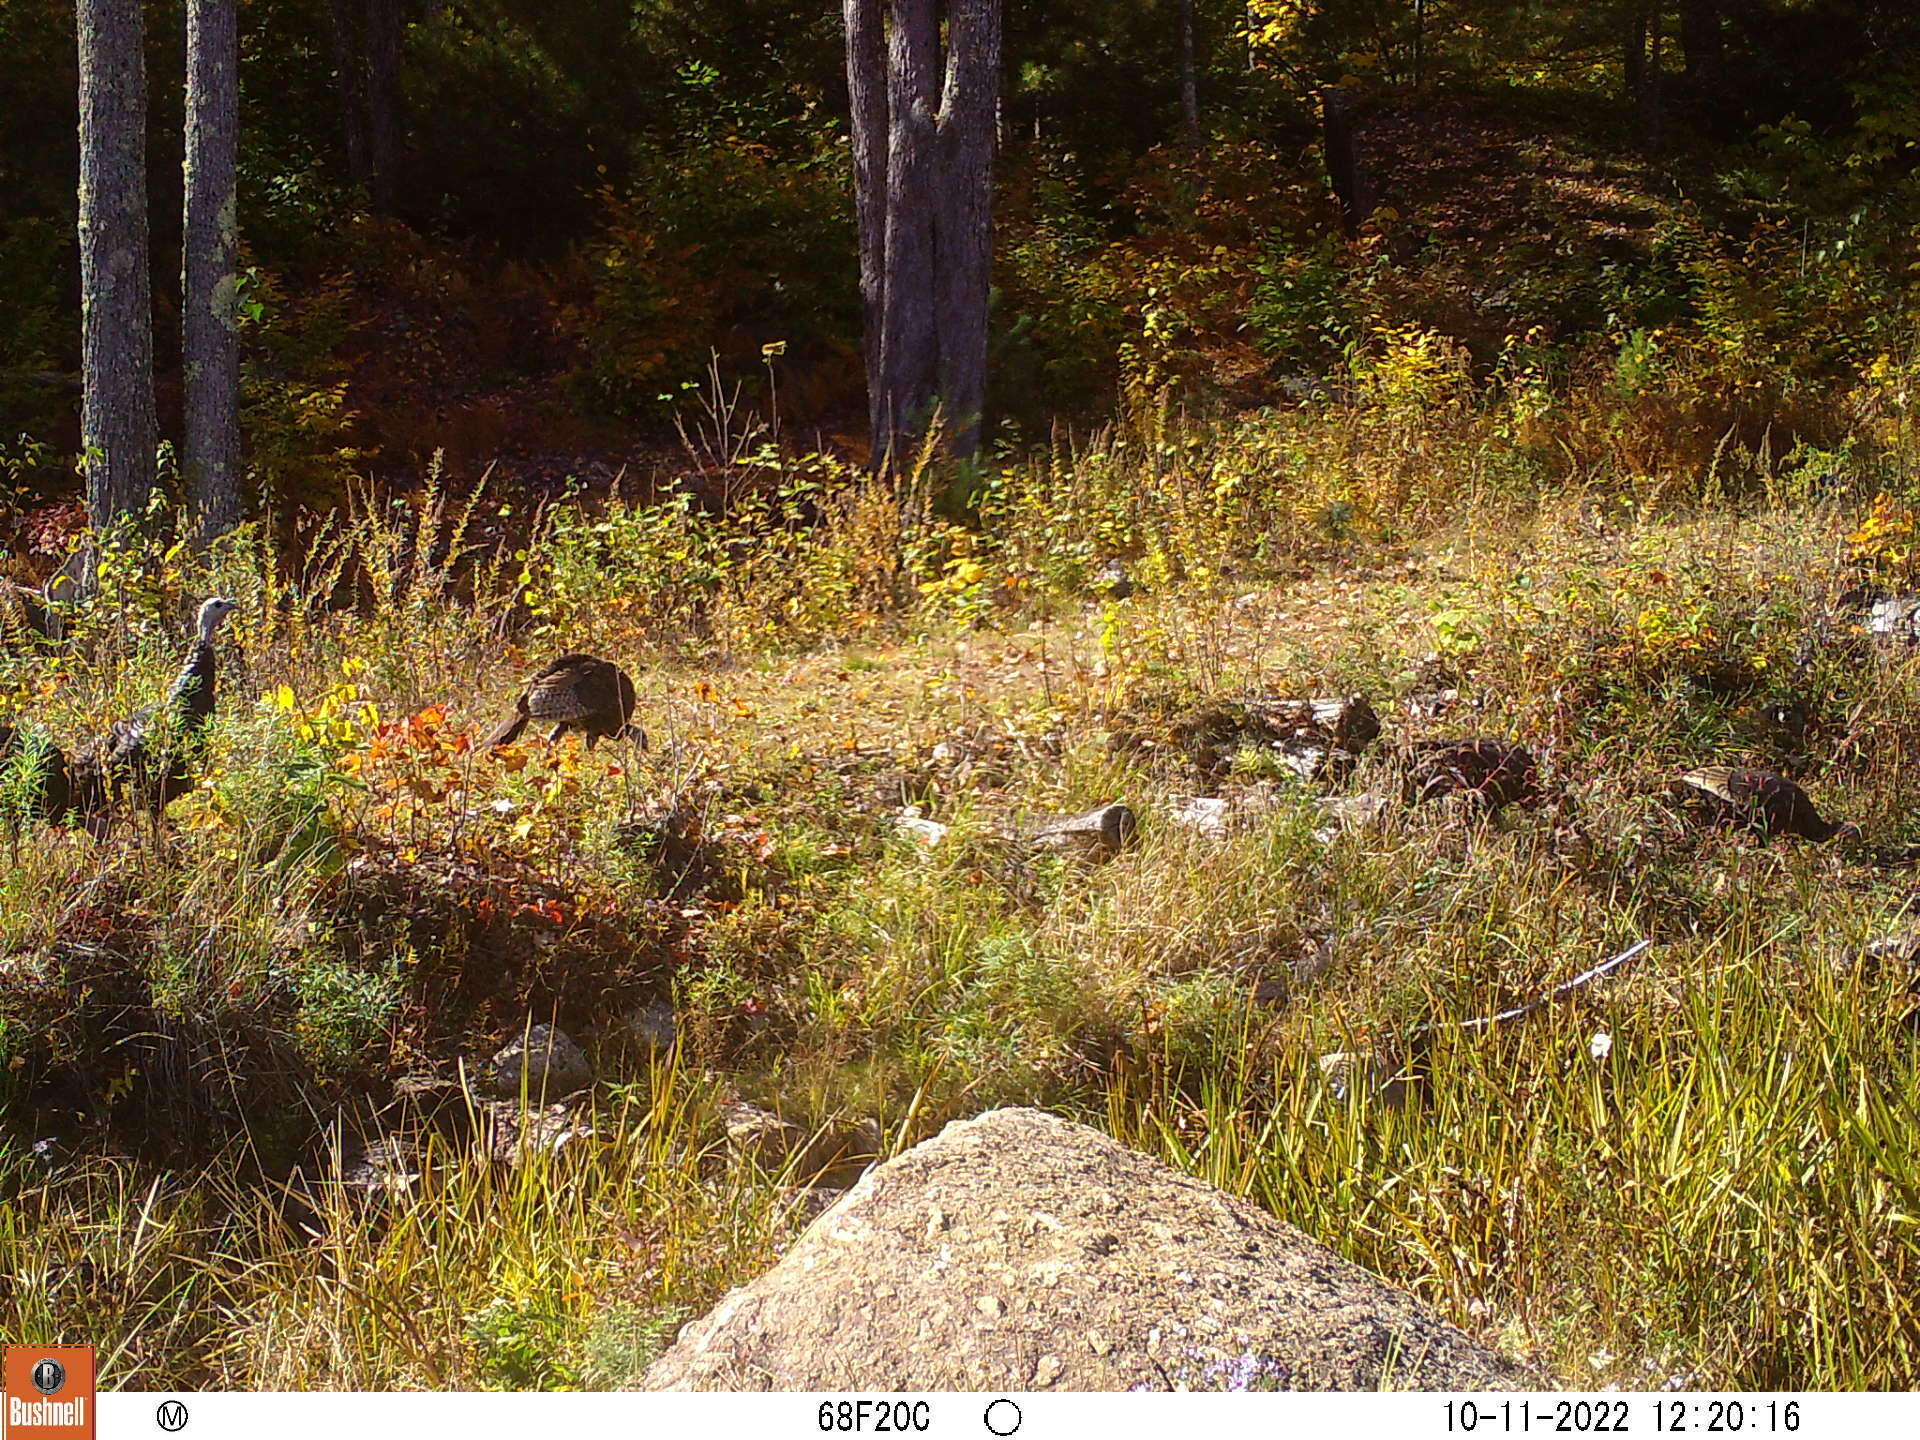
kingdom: Animalia
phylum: Chordata
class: Aves
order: Galliformes
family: Phasianidae
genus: Meleagris
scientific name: Meleagris gallopavo
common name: Wild turkey
